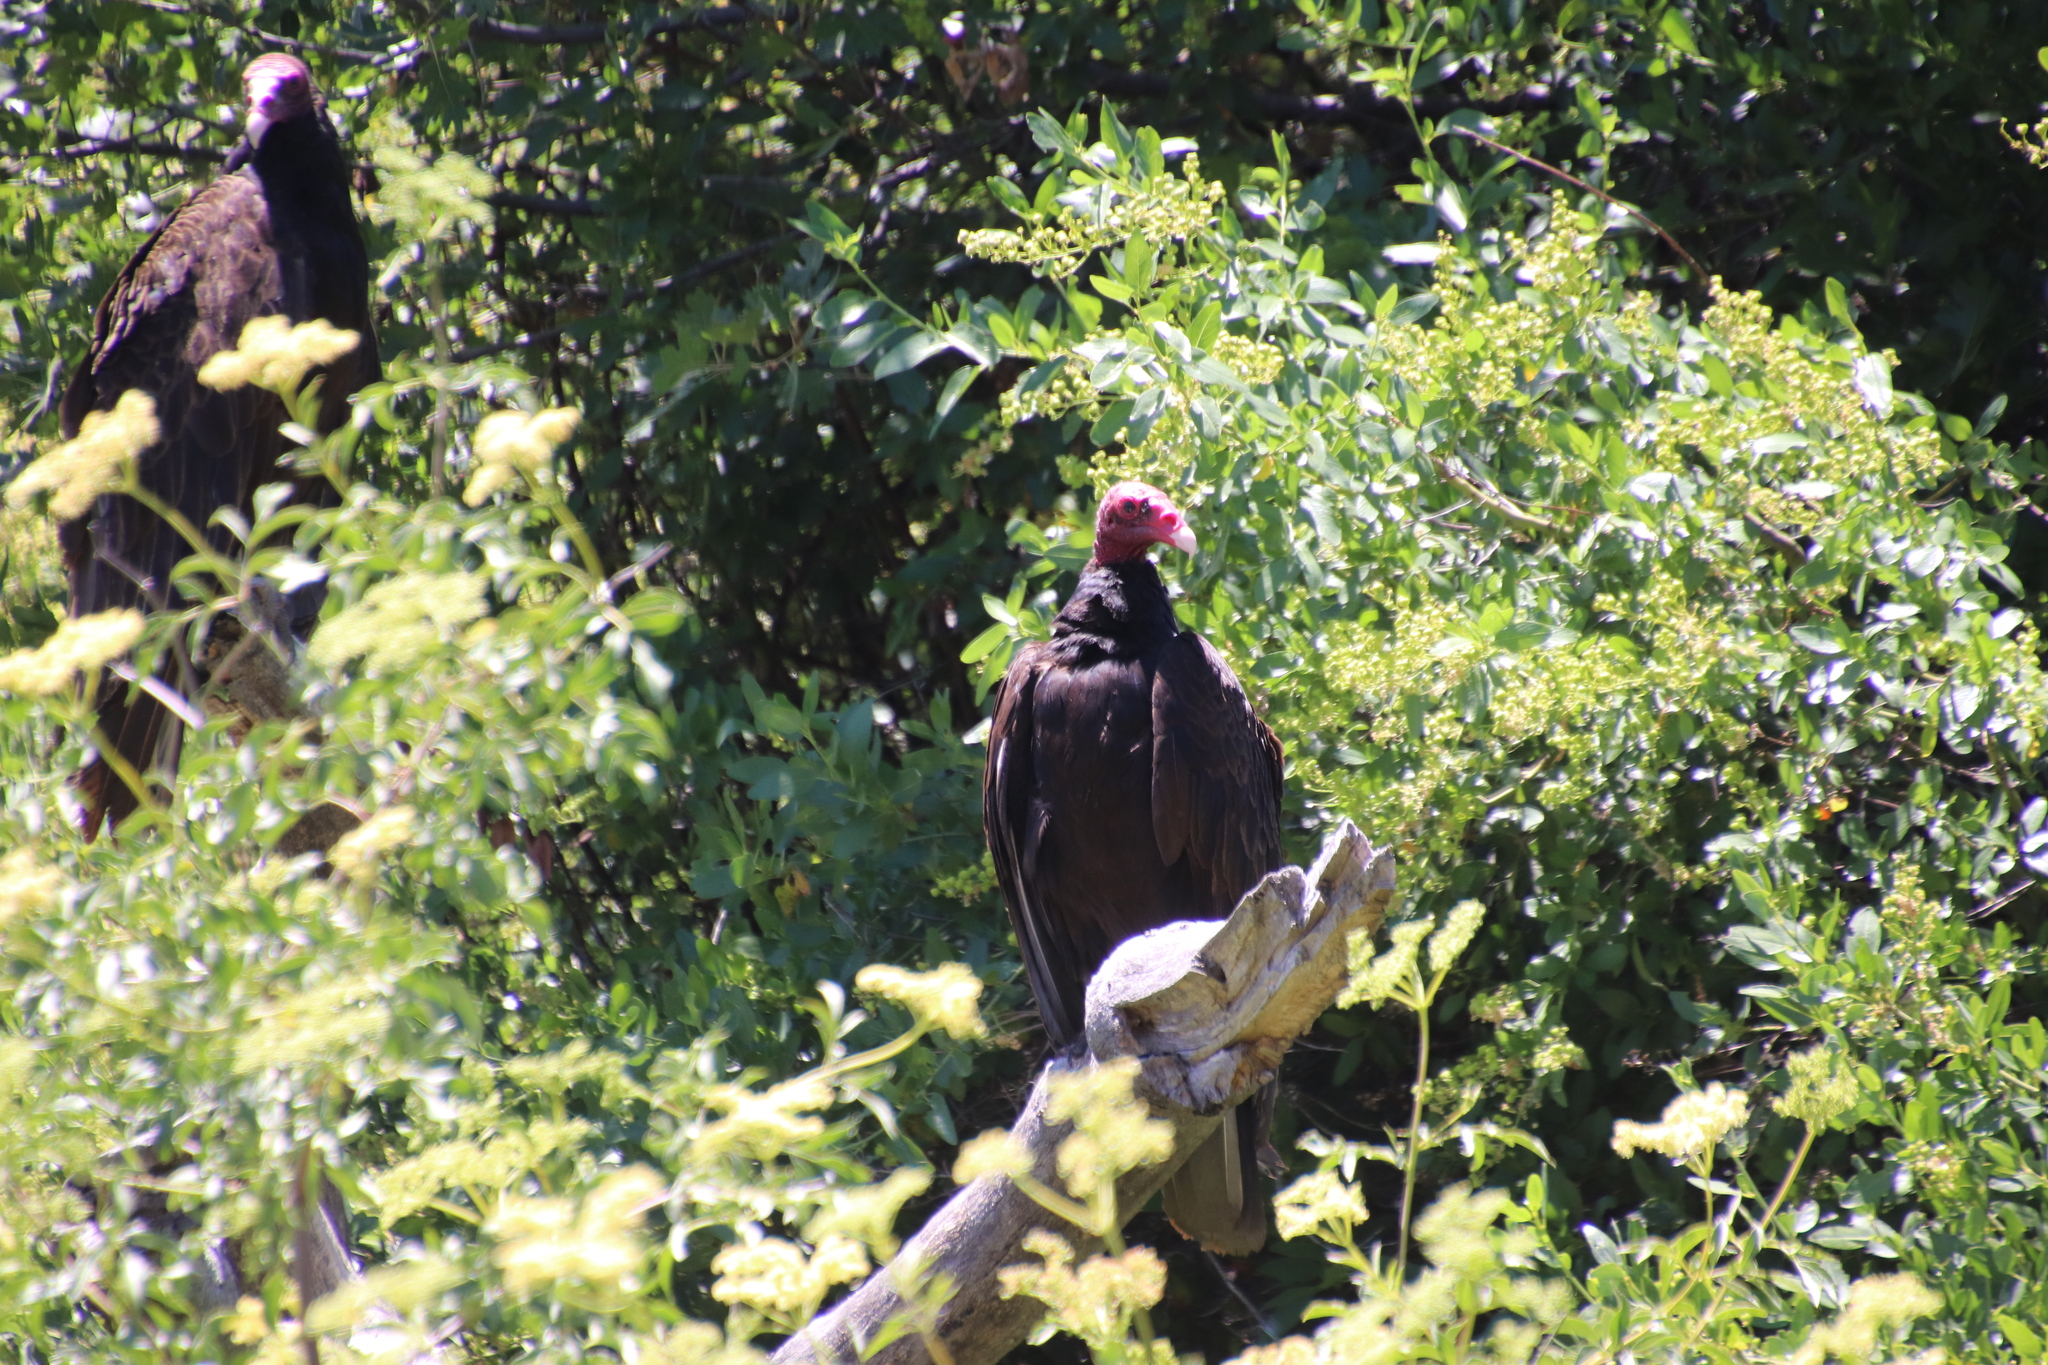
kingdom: Animalia
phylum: Chordata
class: Aves
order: Accipitriformes
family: Cathartidae
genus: Cathartes
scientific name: Cathartes aura
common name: Turkey vulture
